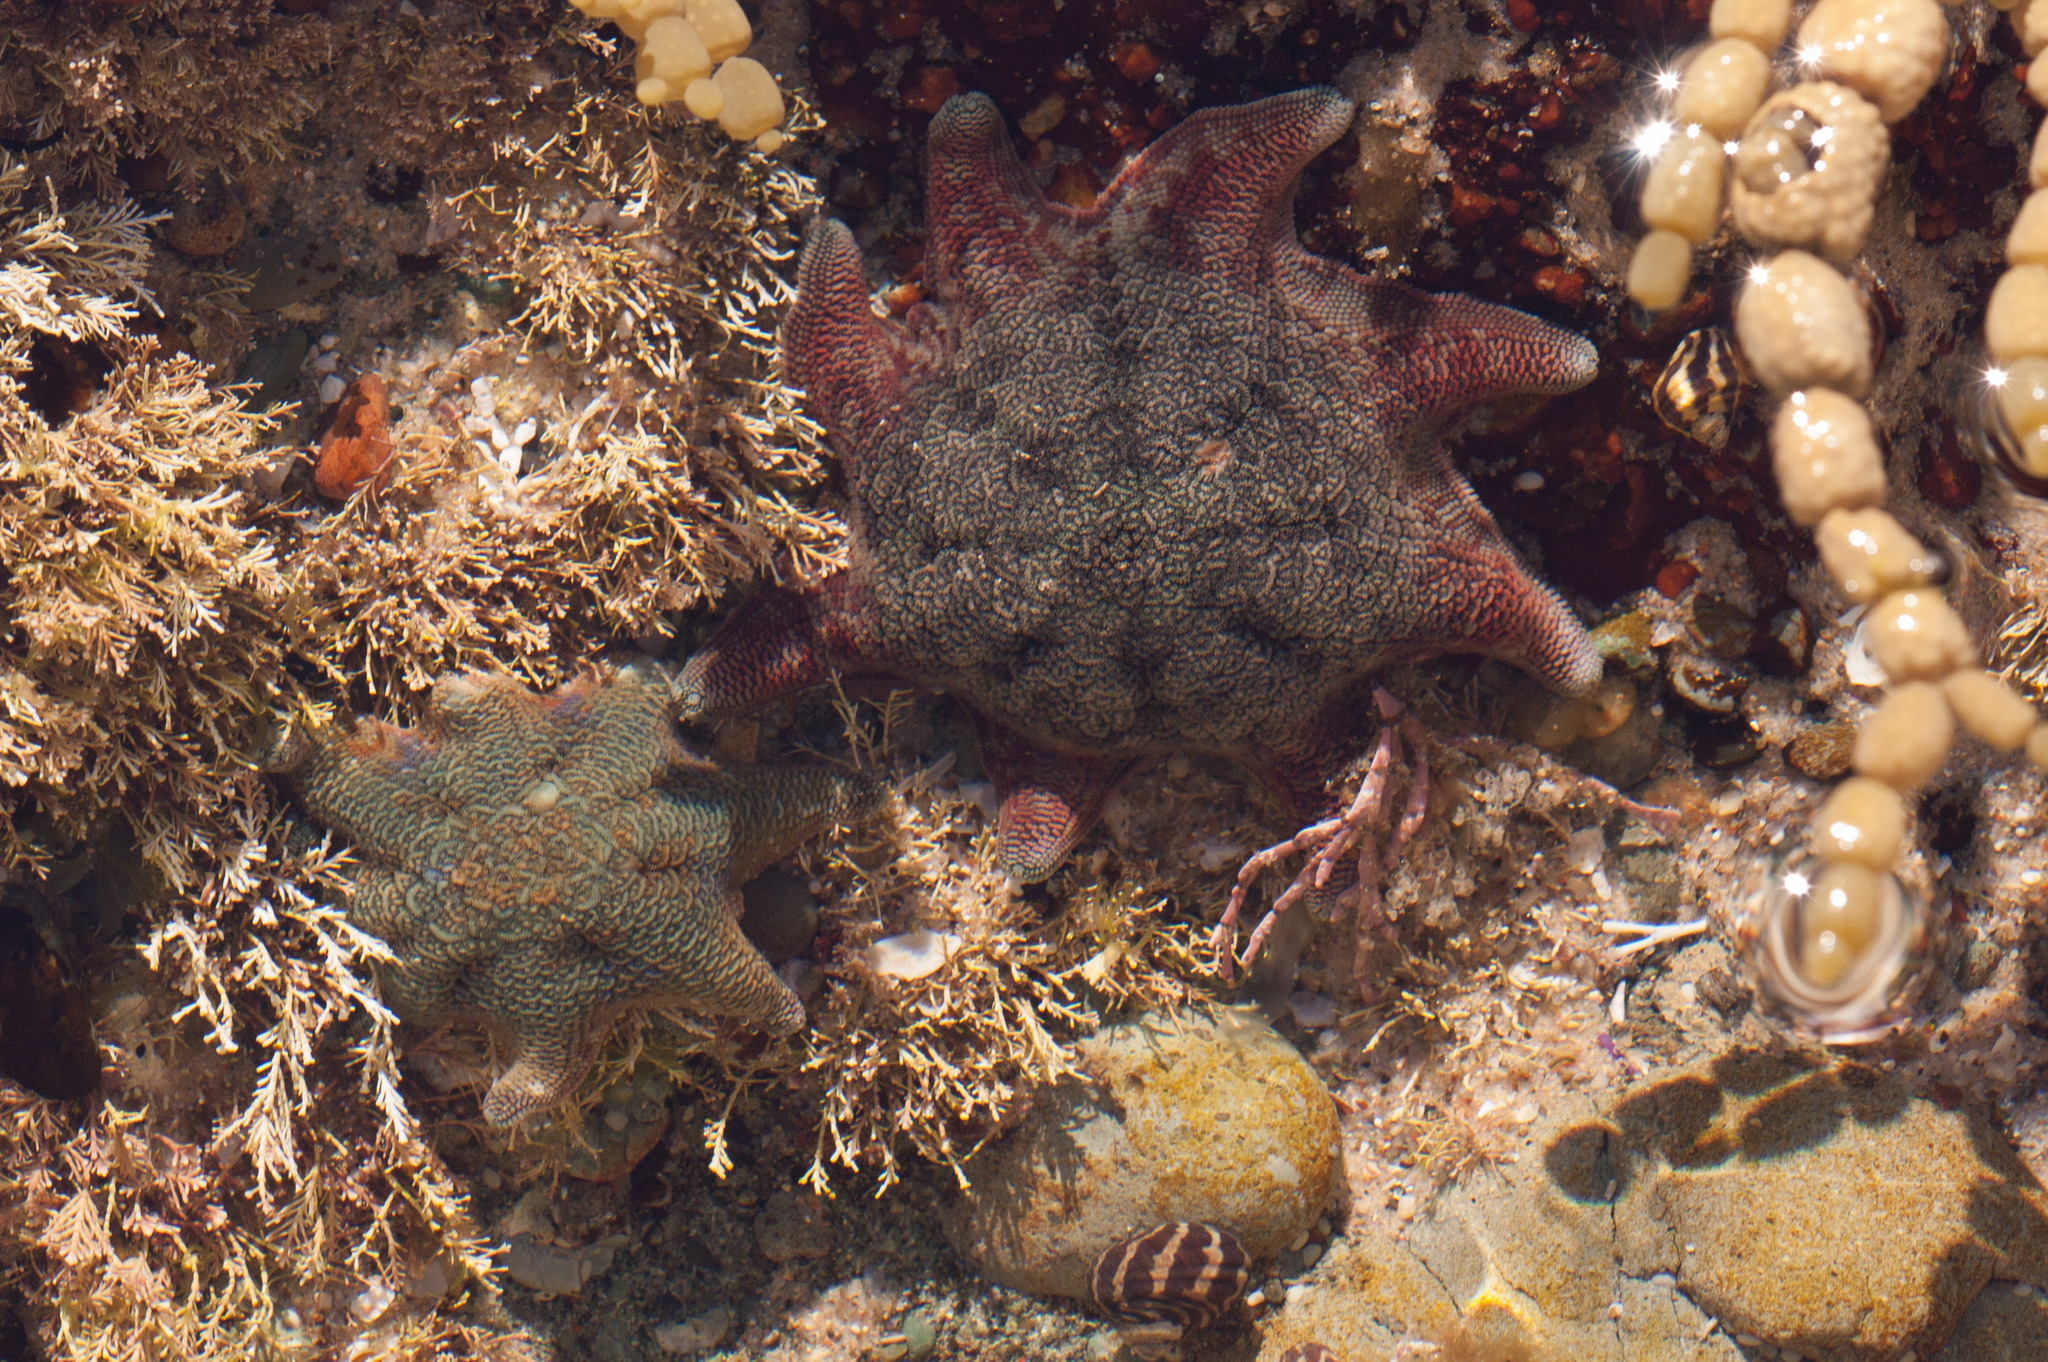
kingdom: Animalia
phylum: Echinodermata
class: Asteroidea
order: Valvatida
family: Asterinidae
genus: Meridiastra
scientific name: Meridiastra calcar
